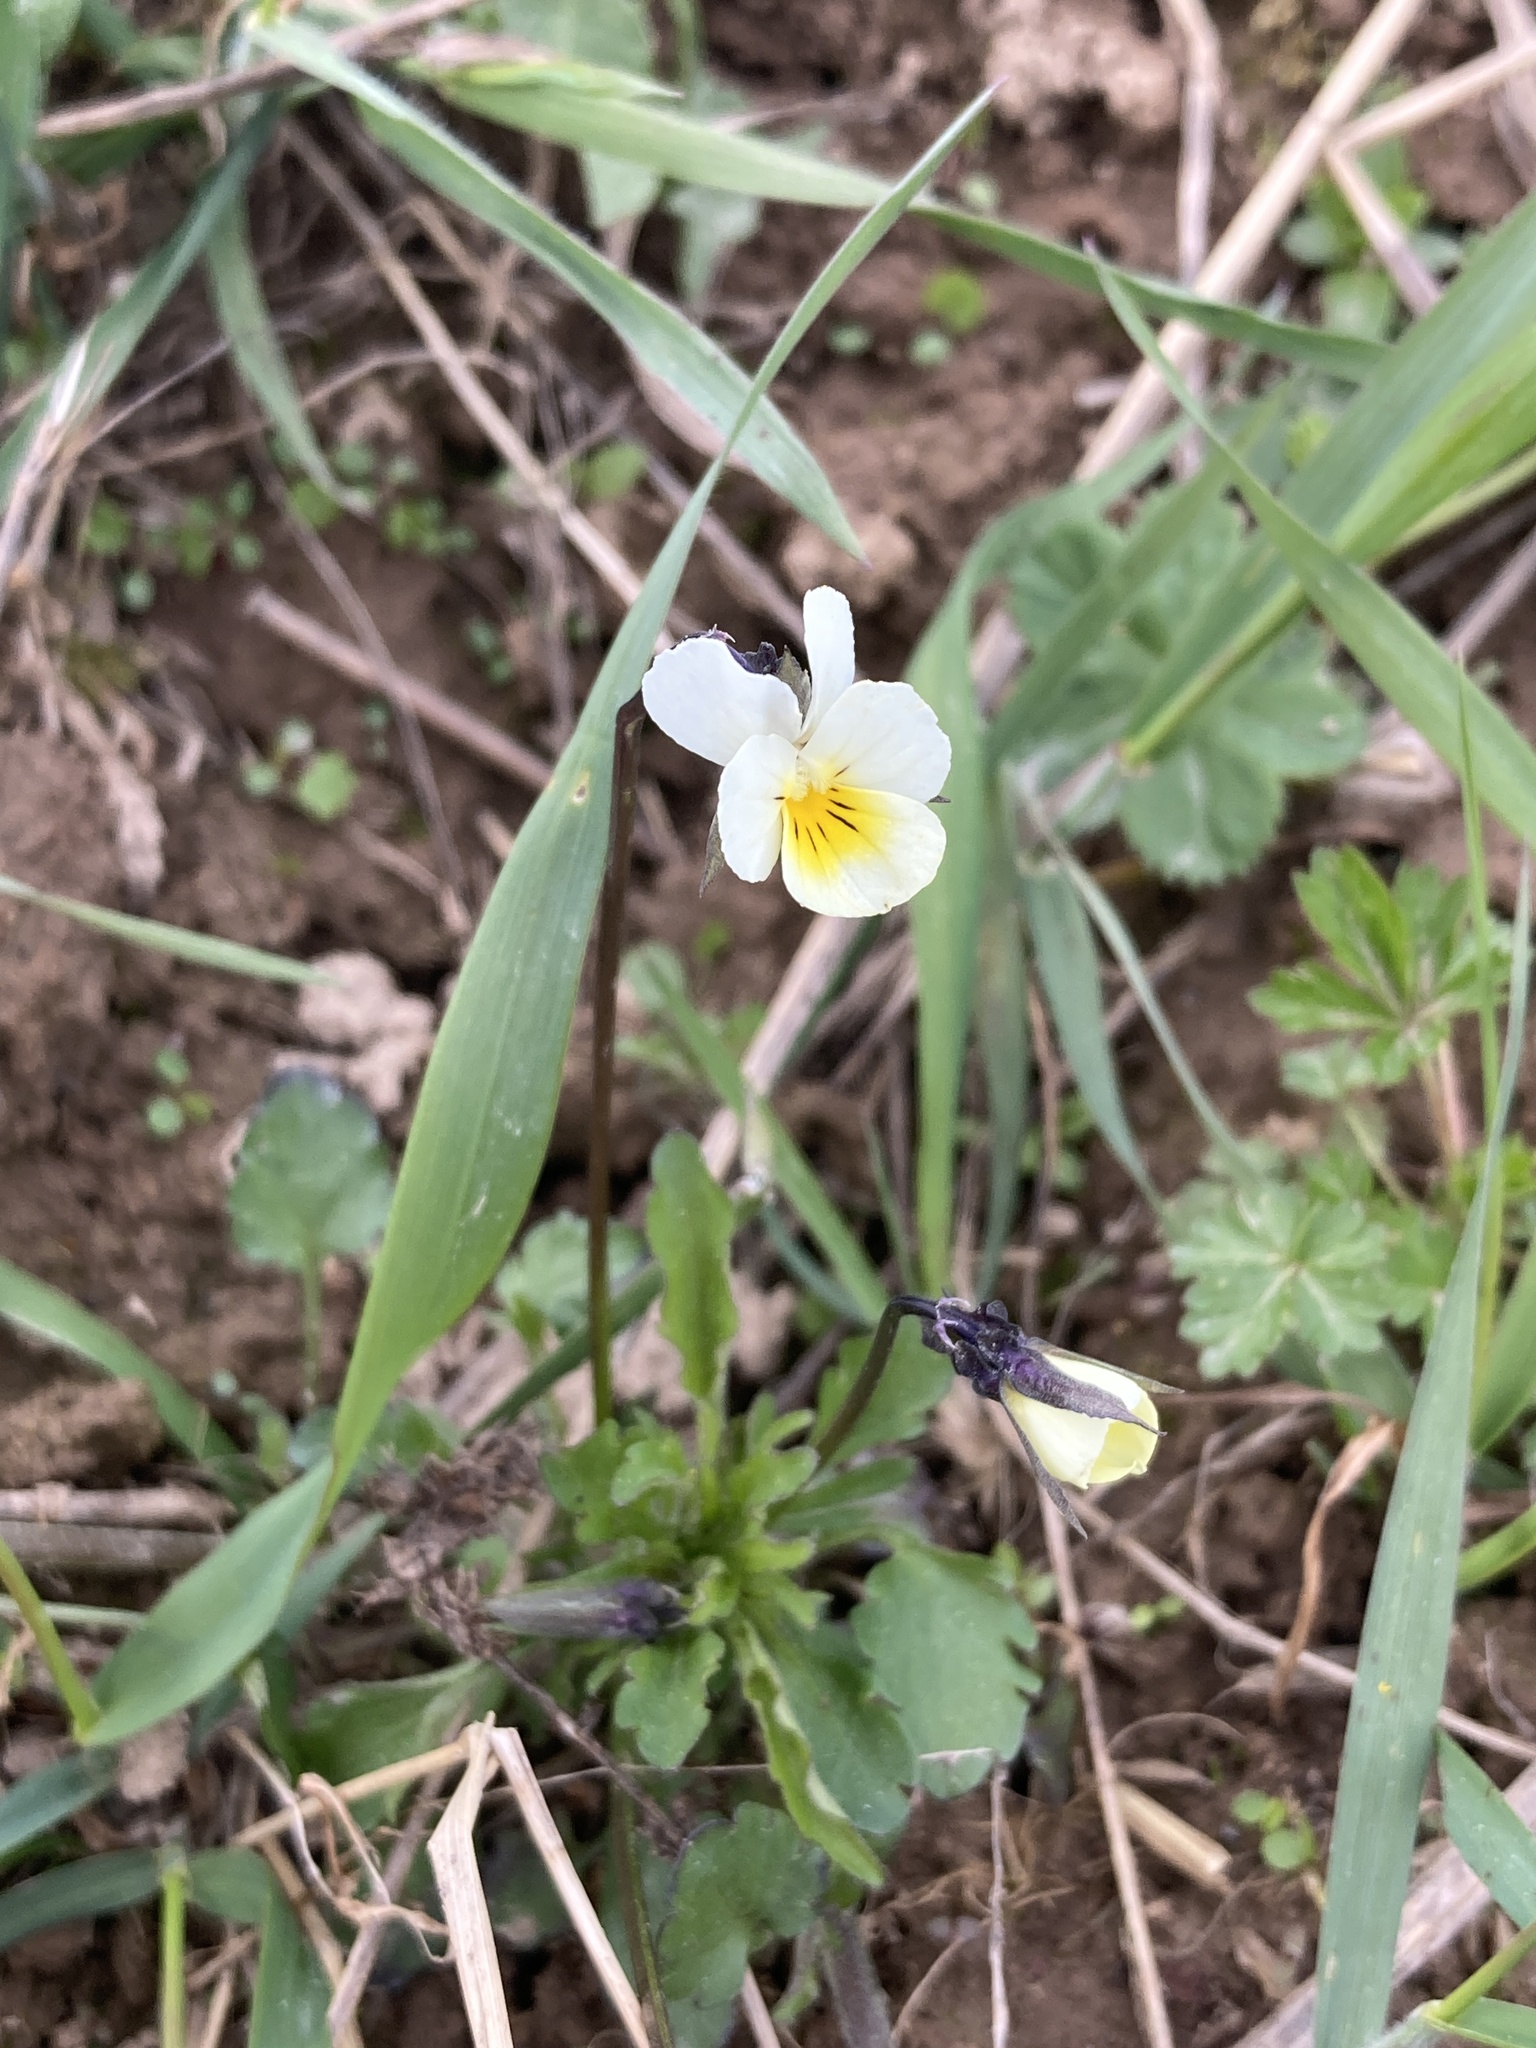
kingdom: Plantae
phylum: Tracheophyta
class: Magnoliopsida
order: Malpighiales
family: Violaceae
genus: Viola
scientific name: Viola arvensis
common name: Field pansy
